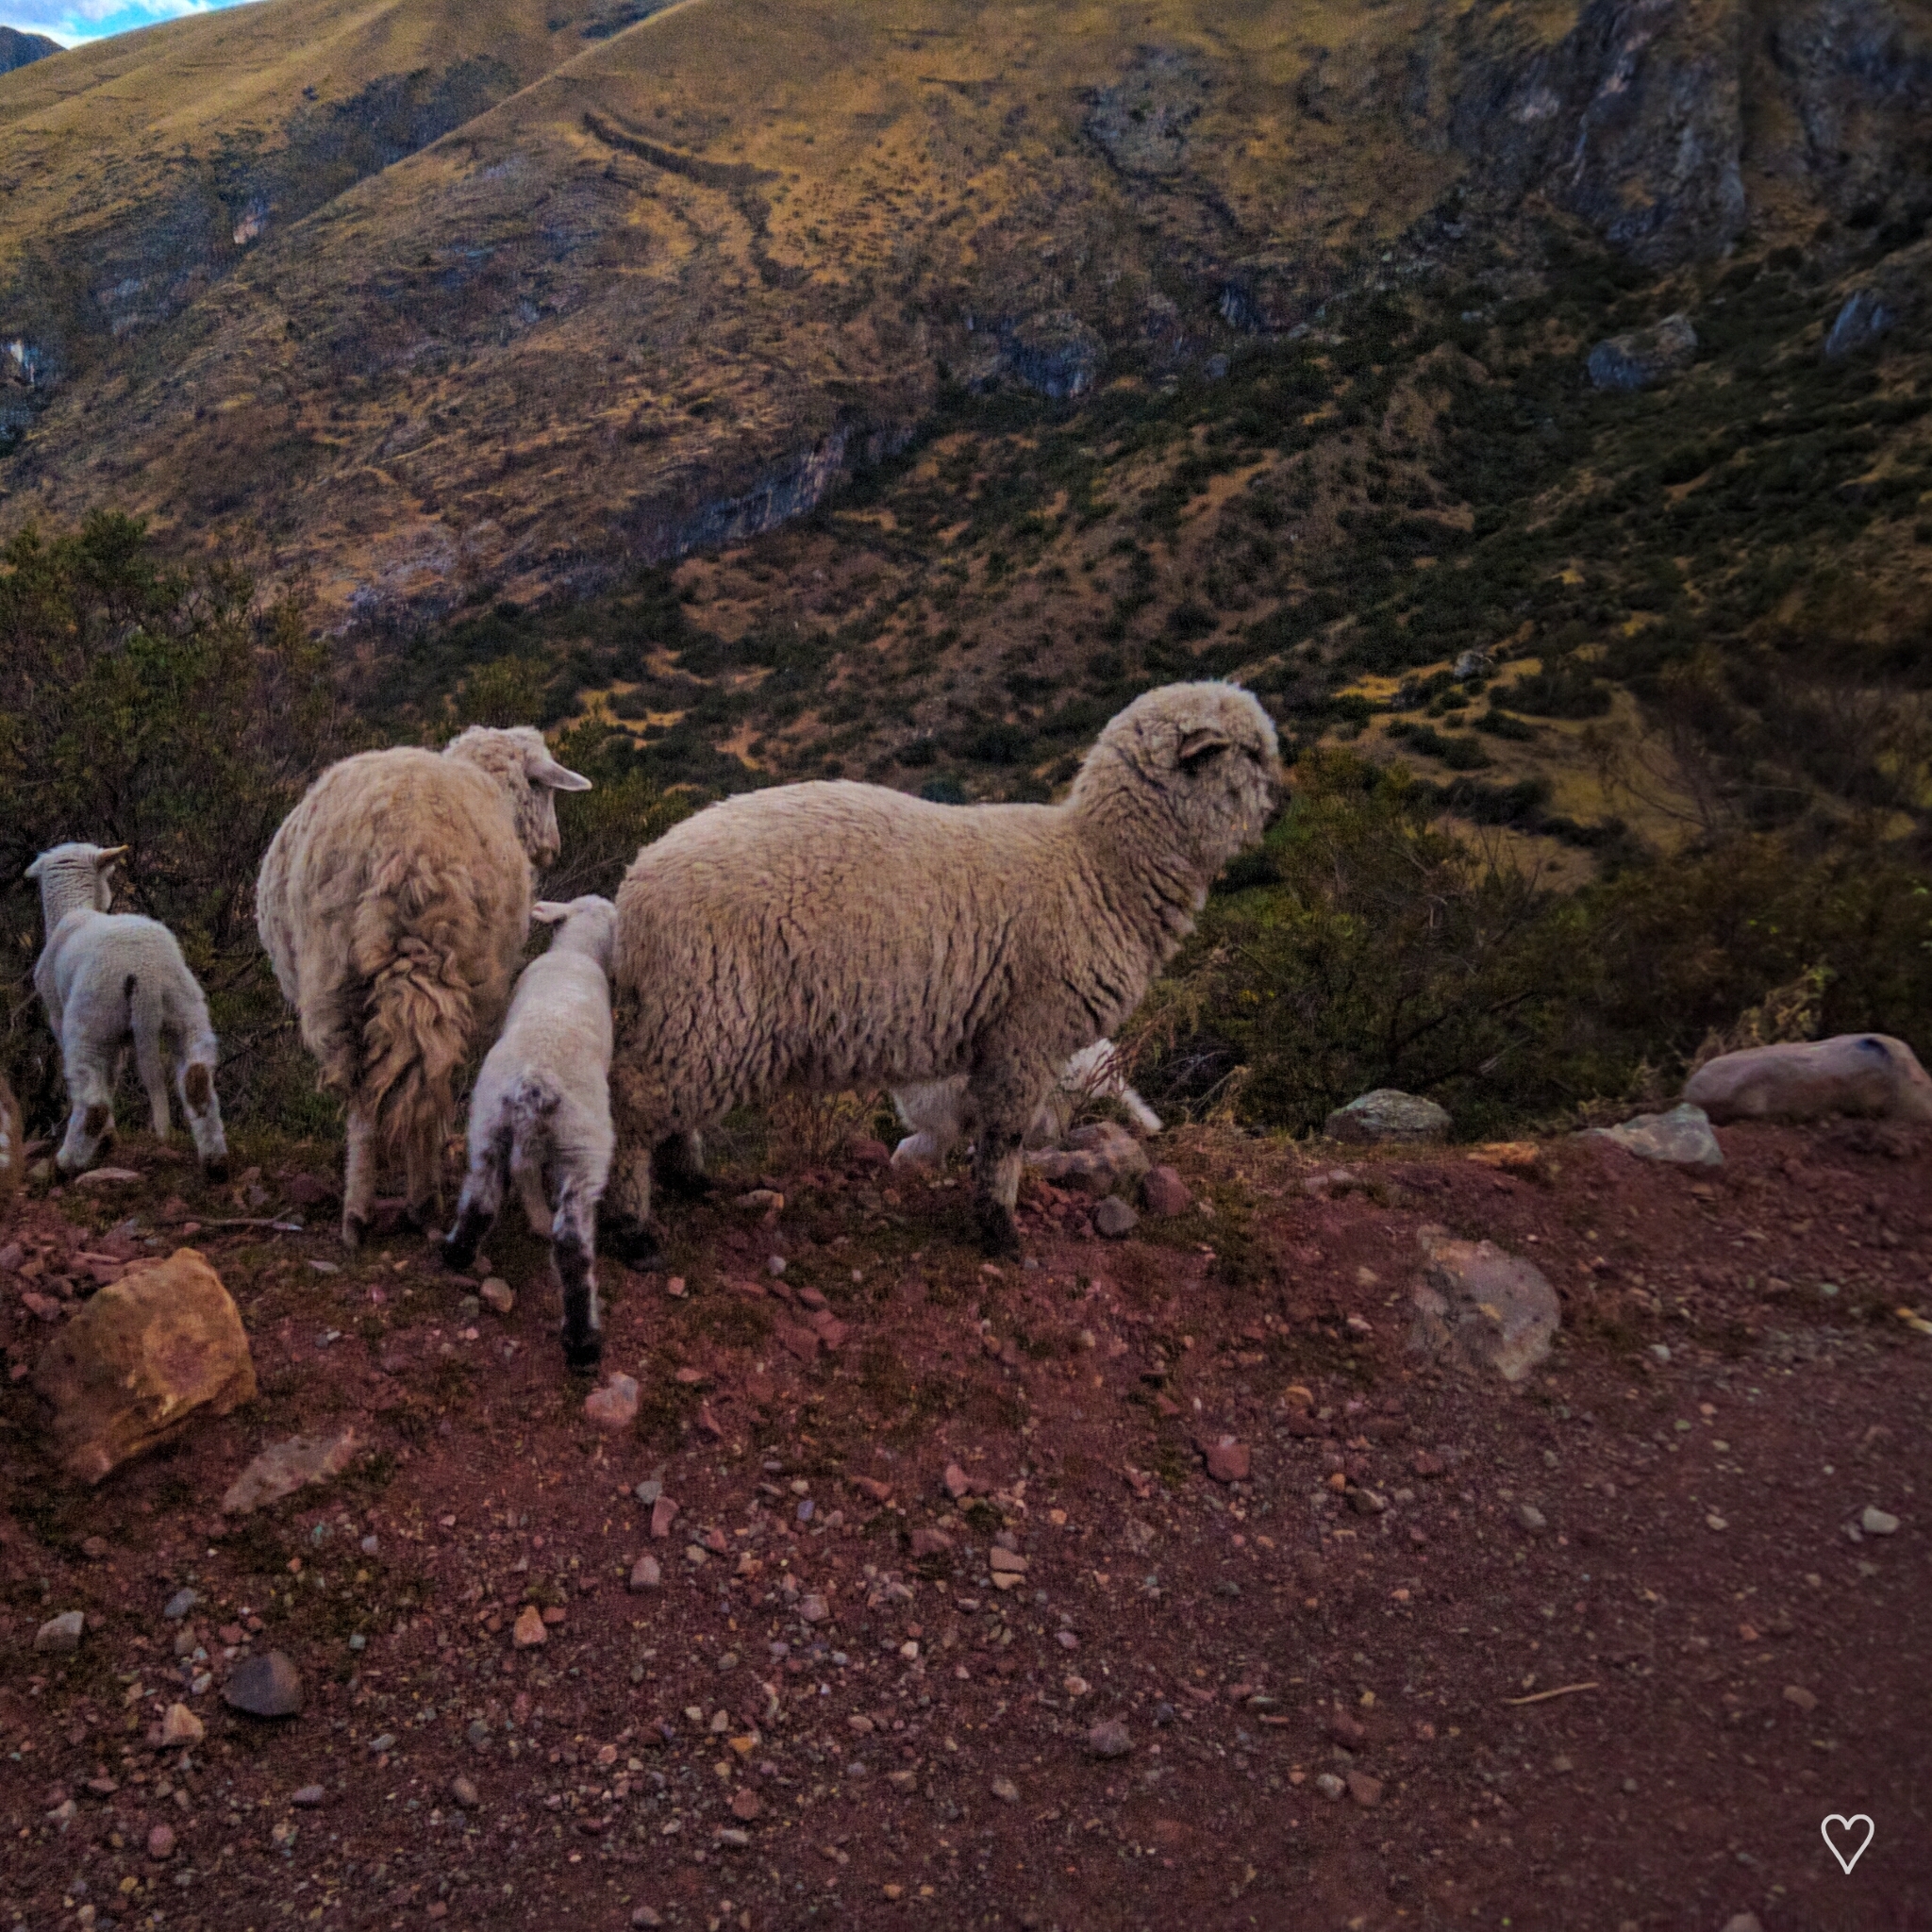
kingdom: Animalia
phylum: Chordata
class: Mammalia
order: Artiodactyla
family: Bovidae
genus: Ovis
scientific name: Ovis aries
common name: Domestic sheep
